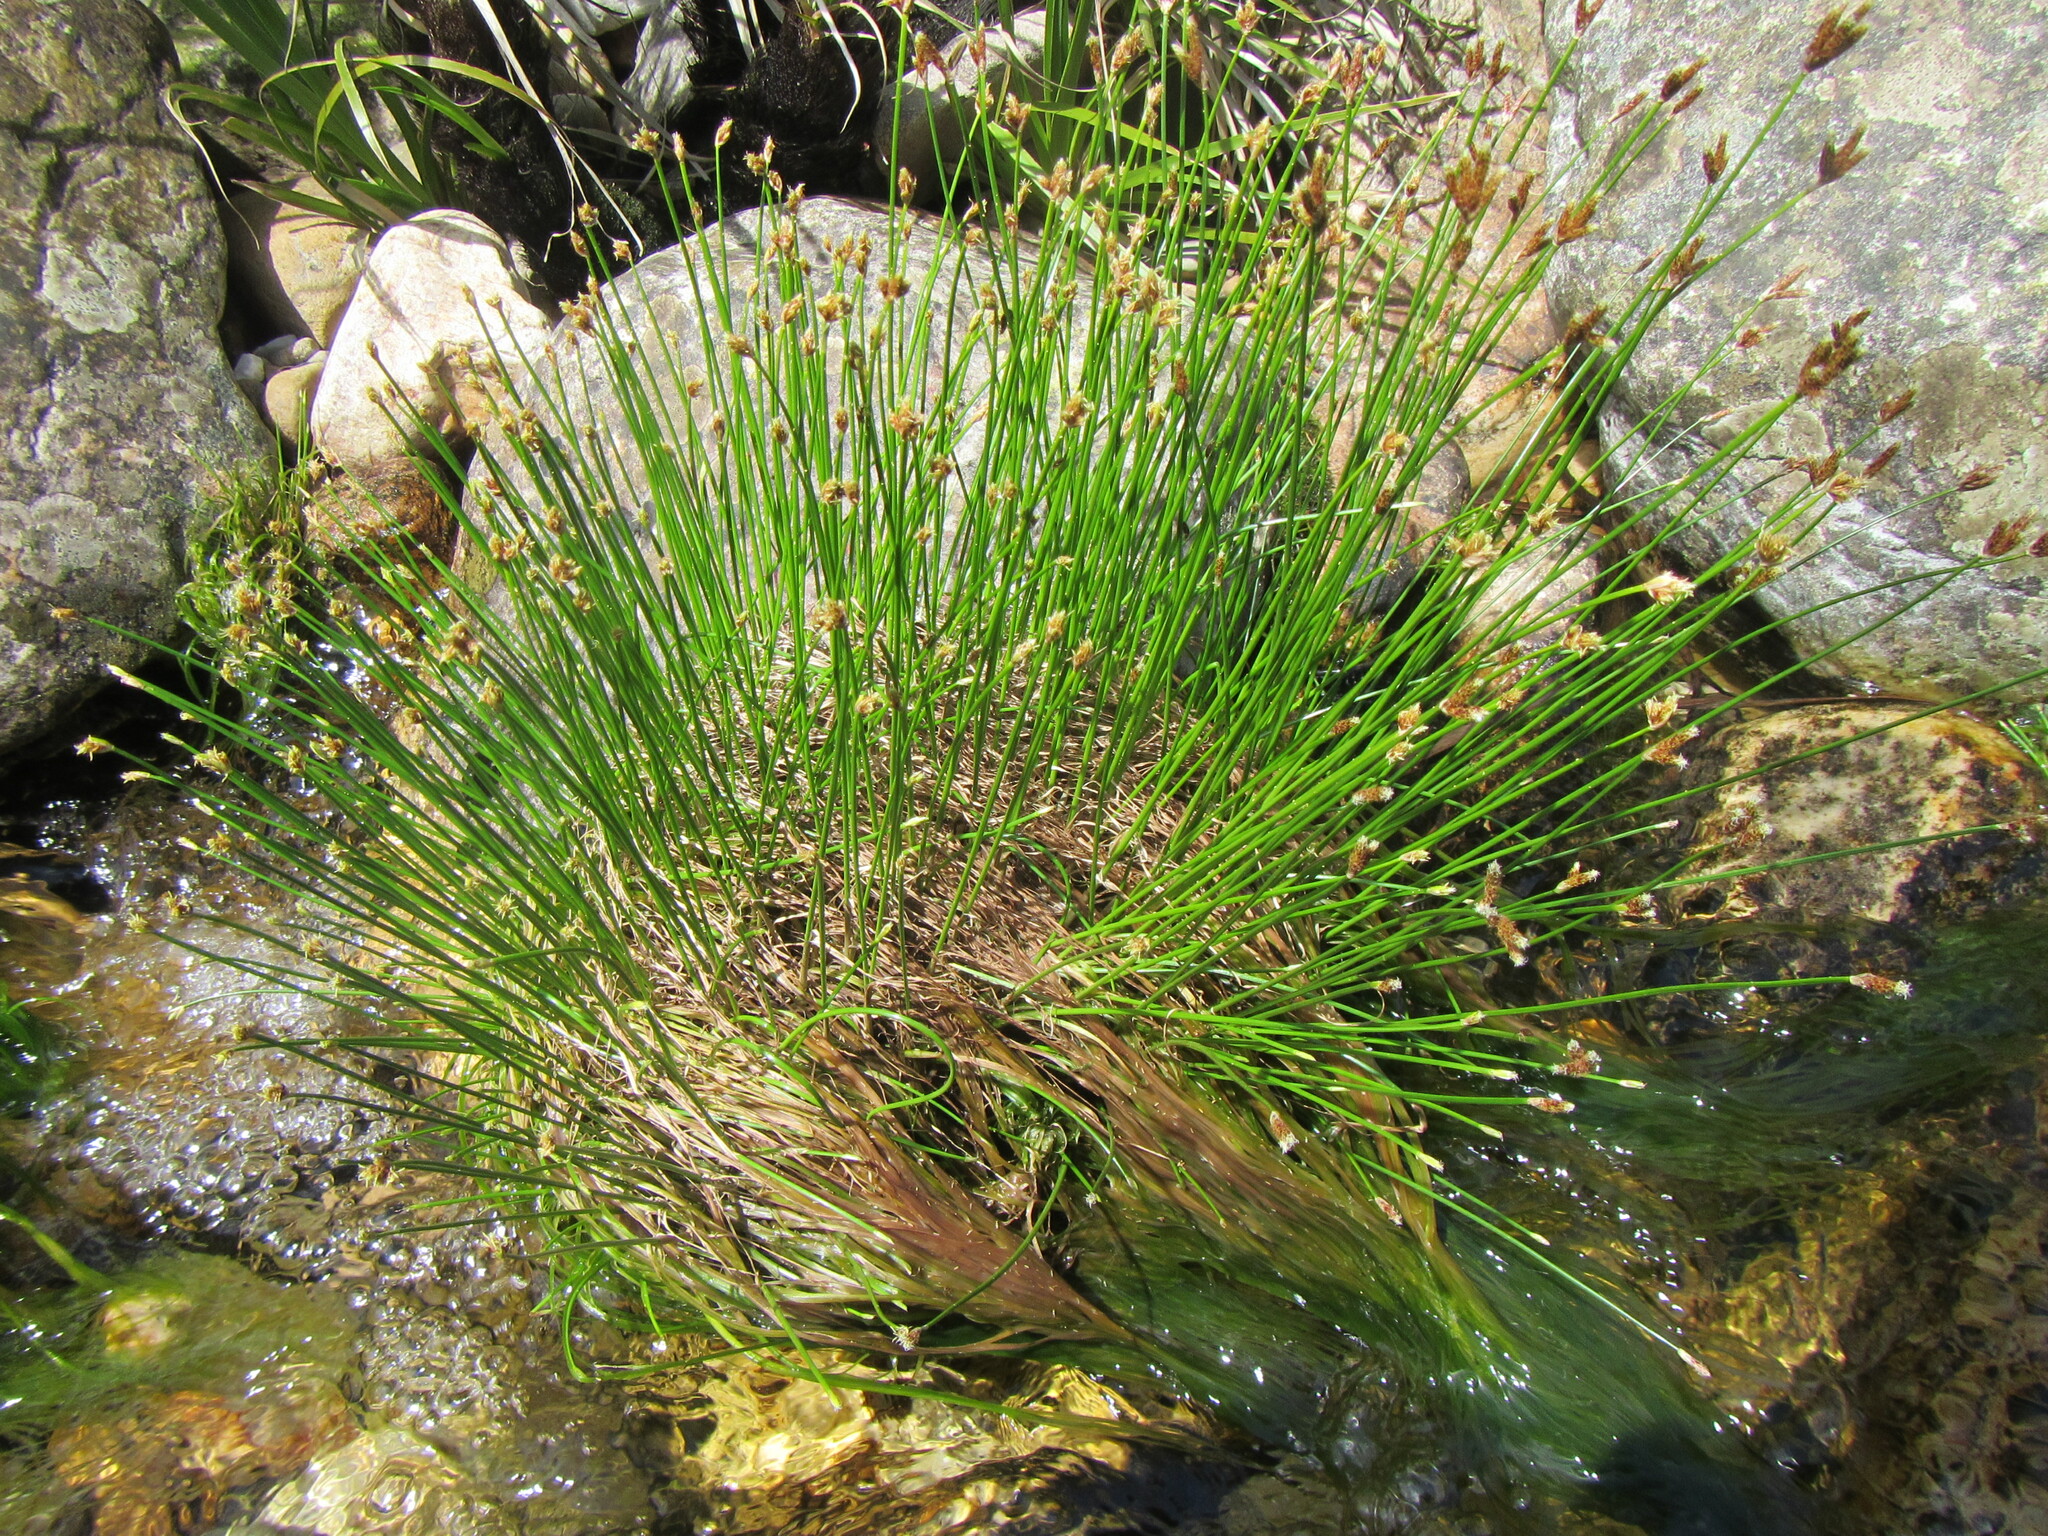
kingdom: Plantae
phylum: Tracheophyta
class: Liliopsida
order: Poales
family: Cyperaceae
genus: Isolepis
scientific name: Isolepis digitata
